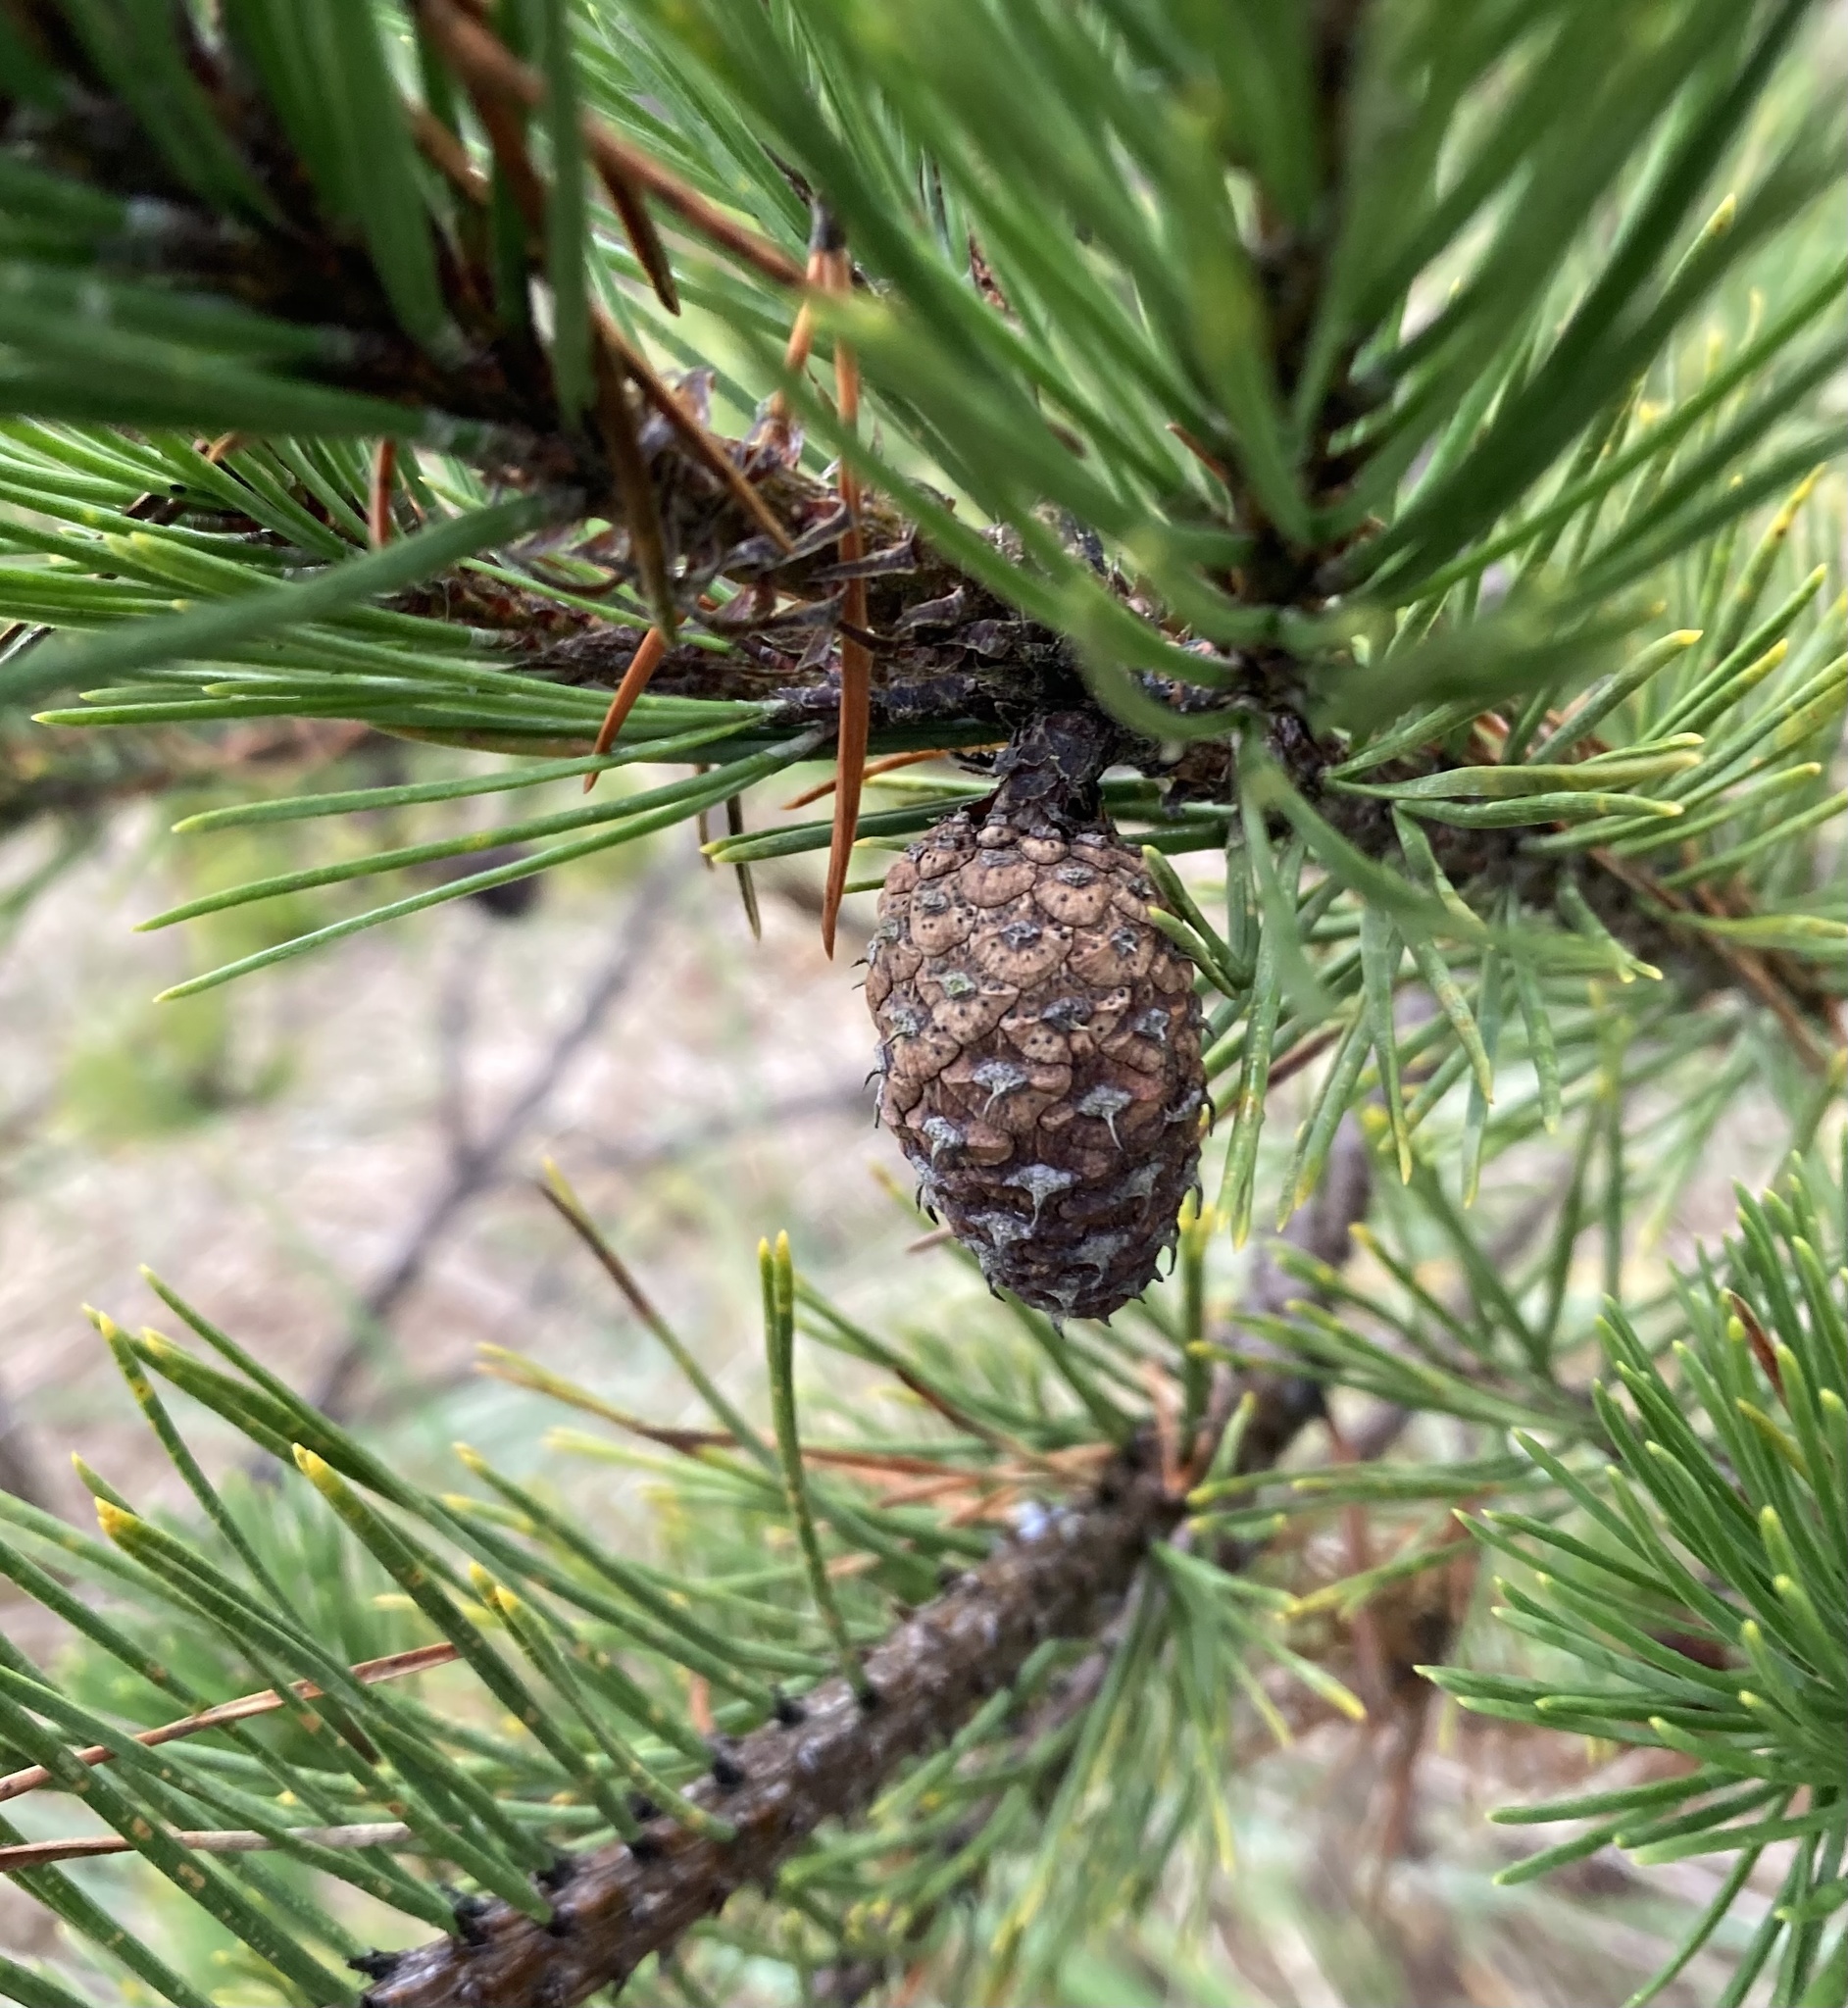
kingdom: Plantae
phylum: Tracheophyta
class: Pinopsida
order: Pinales
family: Pinaceae
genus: Pinus
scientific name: Pinus contorta
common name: Lodgepole pine
